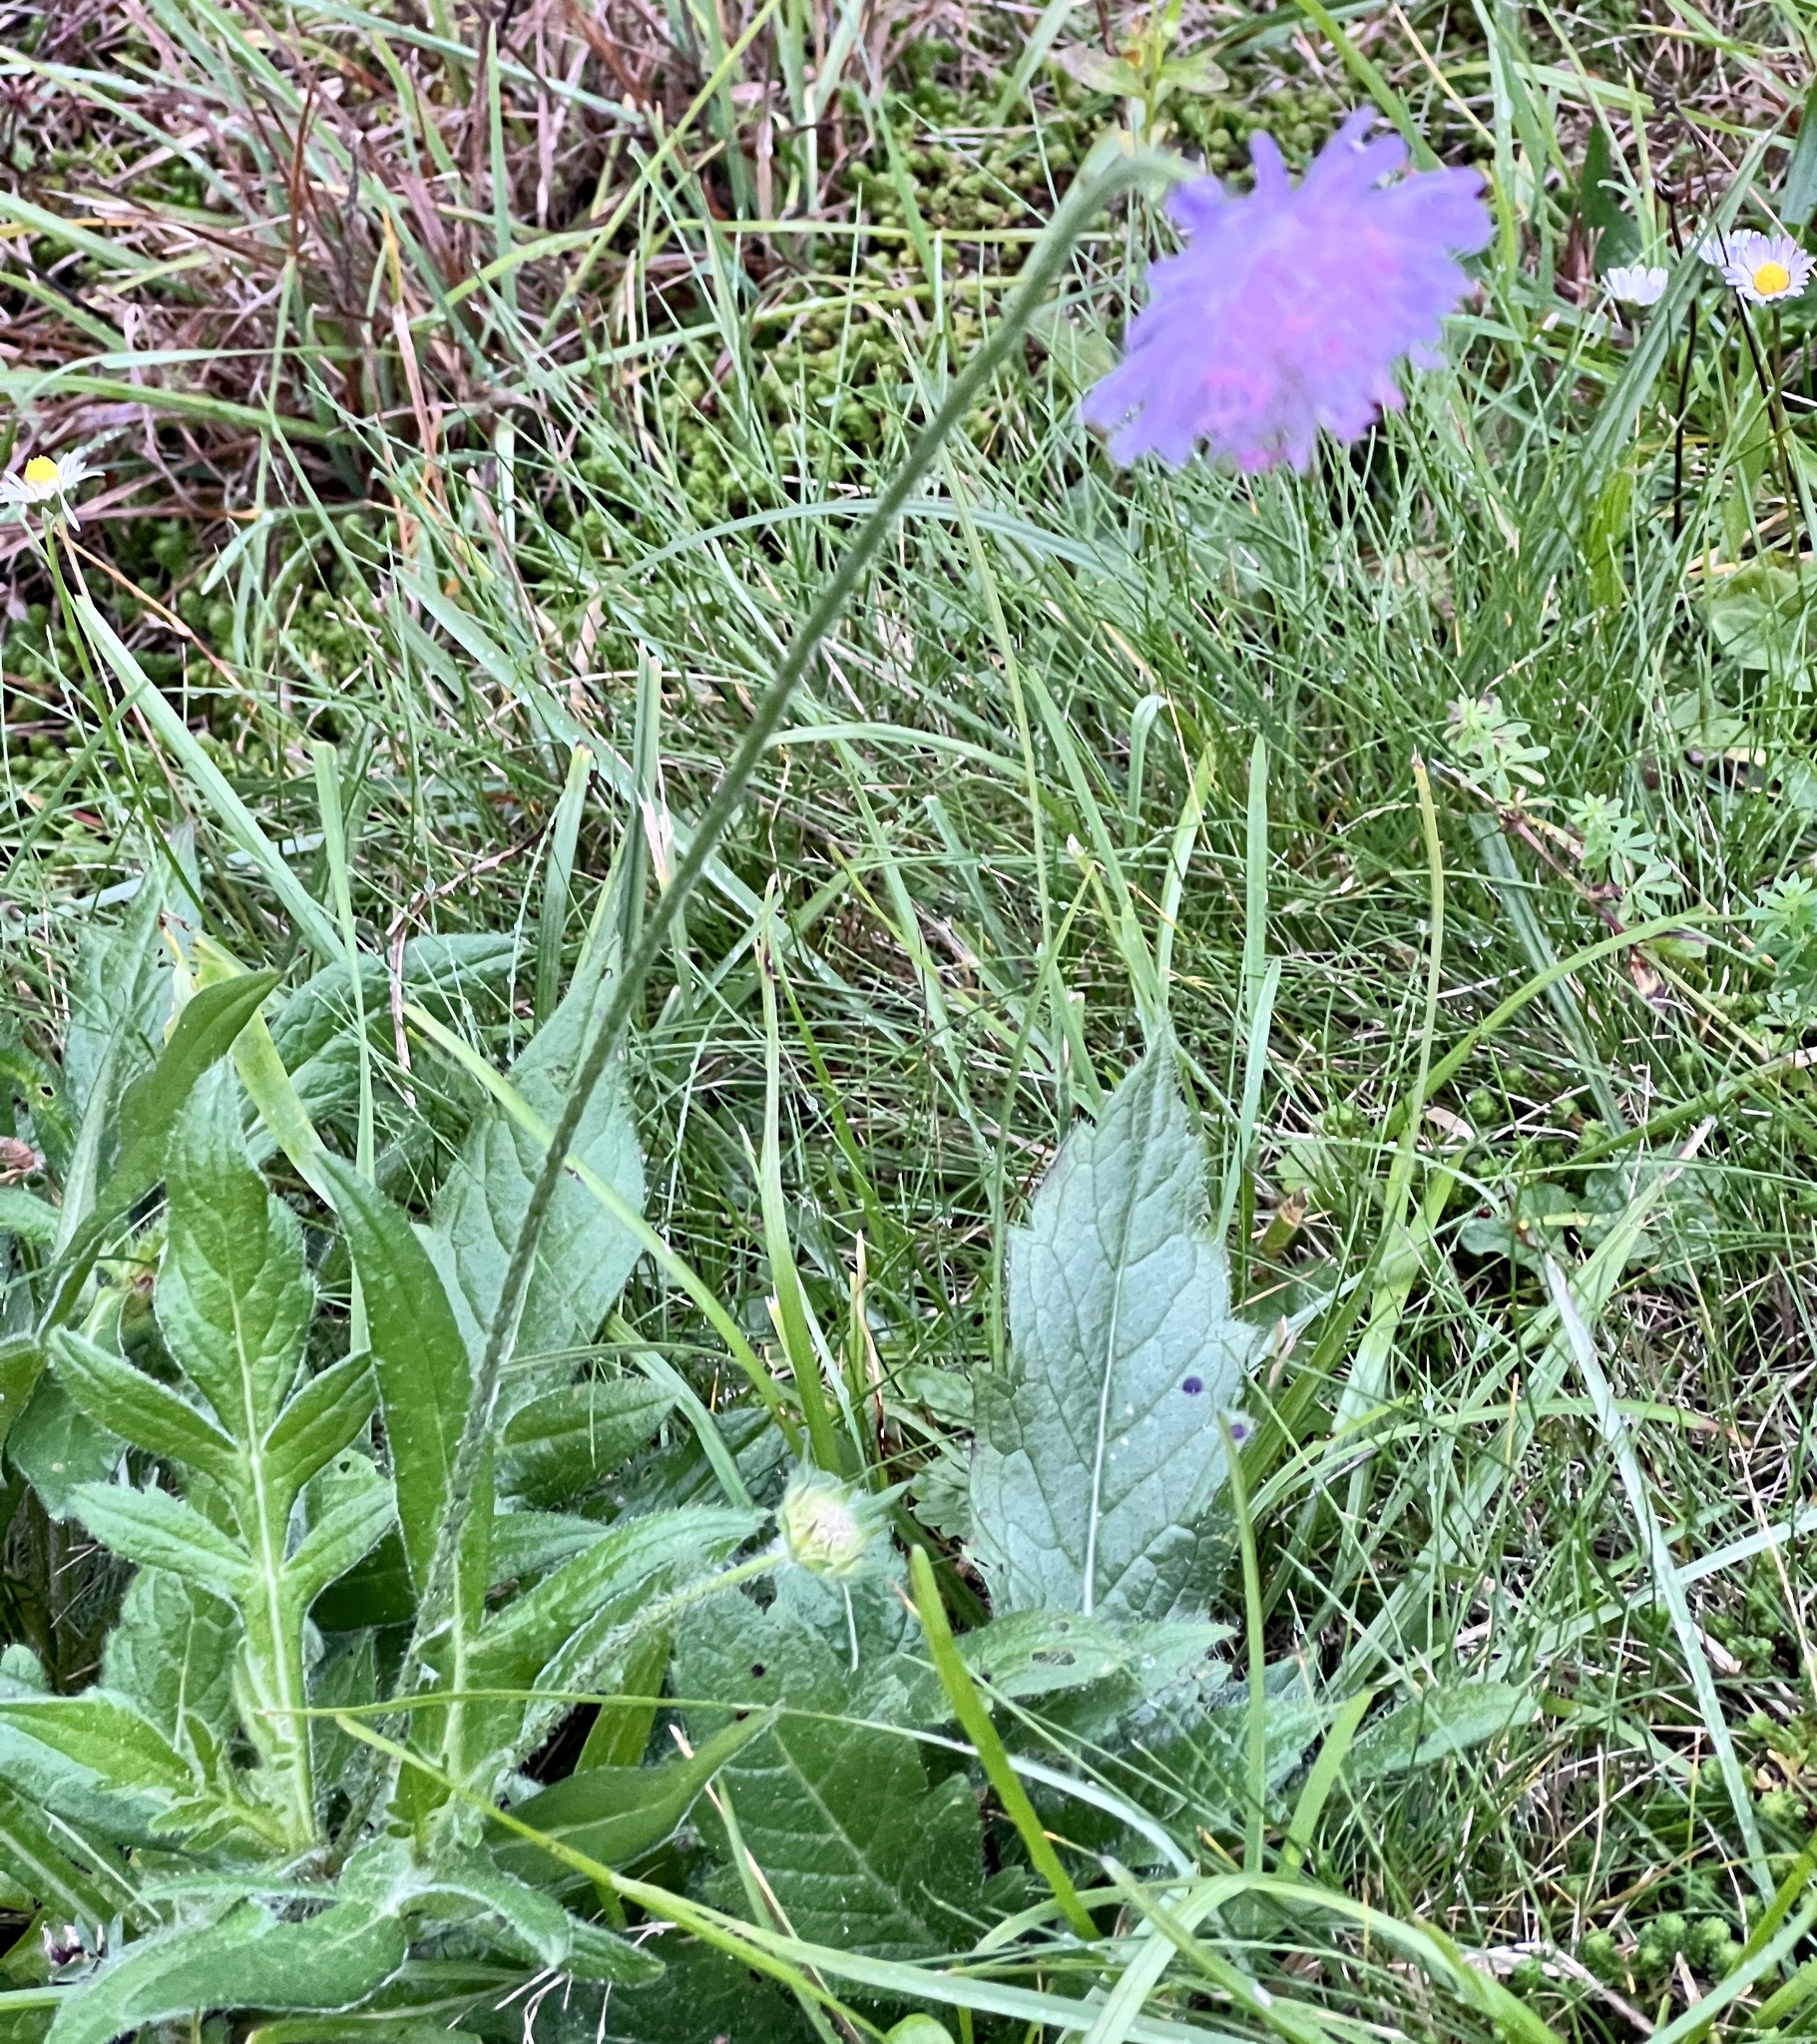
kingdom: Plantae
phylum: Tracheophyta
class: Magnoliopsida
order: Dipsacales
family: Caprifoliaceae
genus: Knautia
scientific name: Knautia arvensis
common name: Field scabiosa
